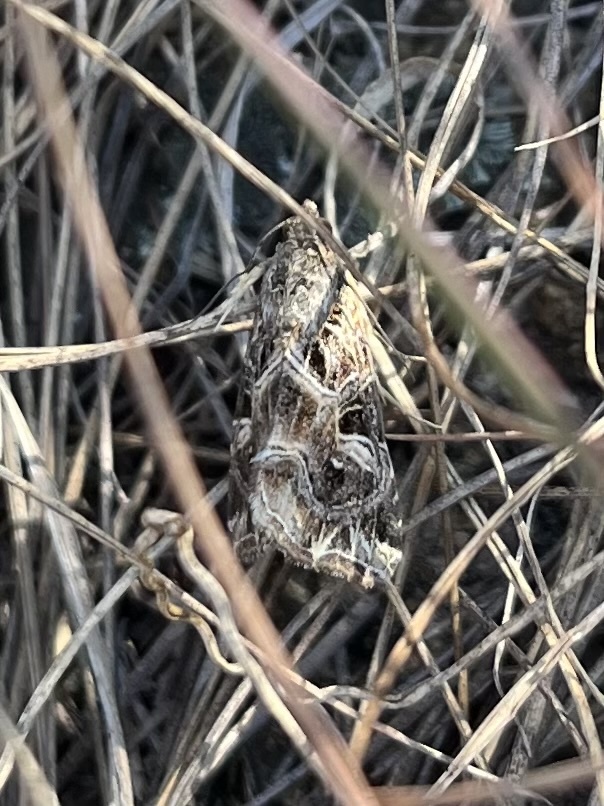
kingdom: Animalia
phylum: Arthropoda
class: Insecta
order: Lepidoptera
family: Noctuidae
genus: Callopistria
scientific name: Callopistria yerburii
